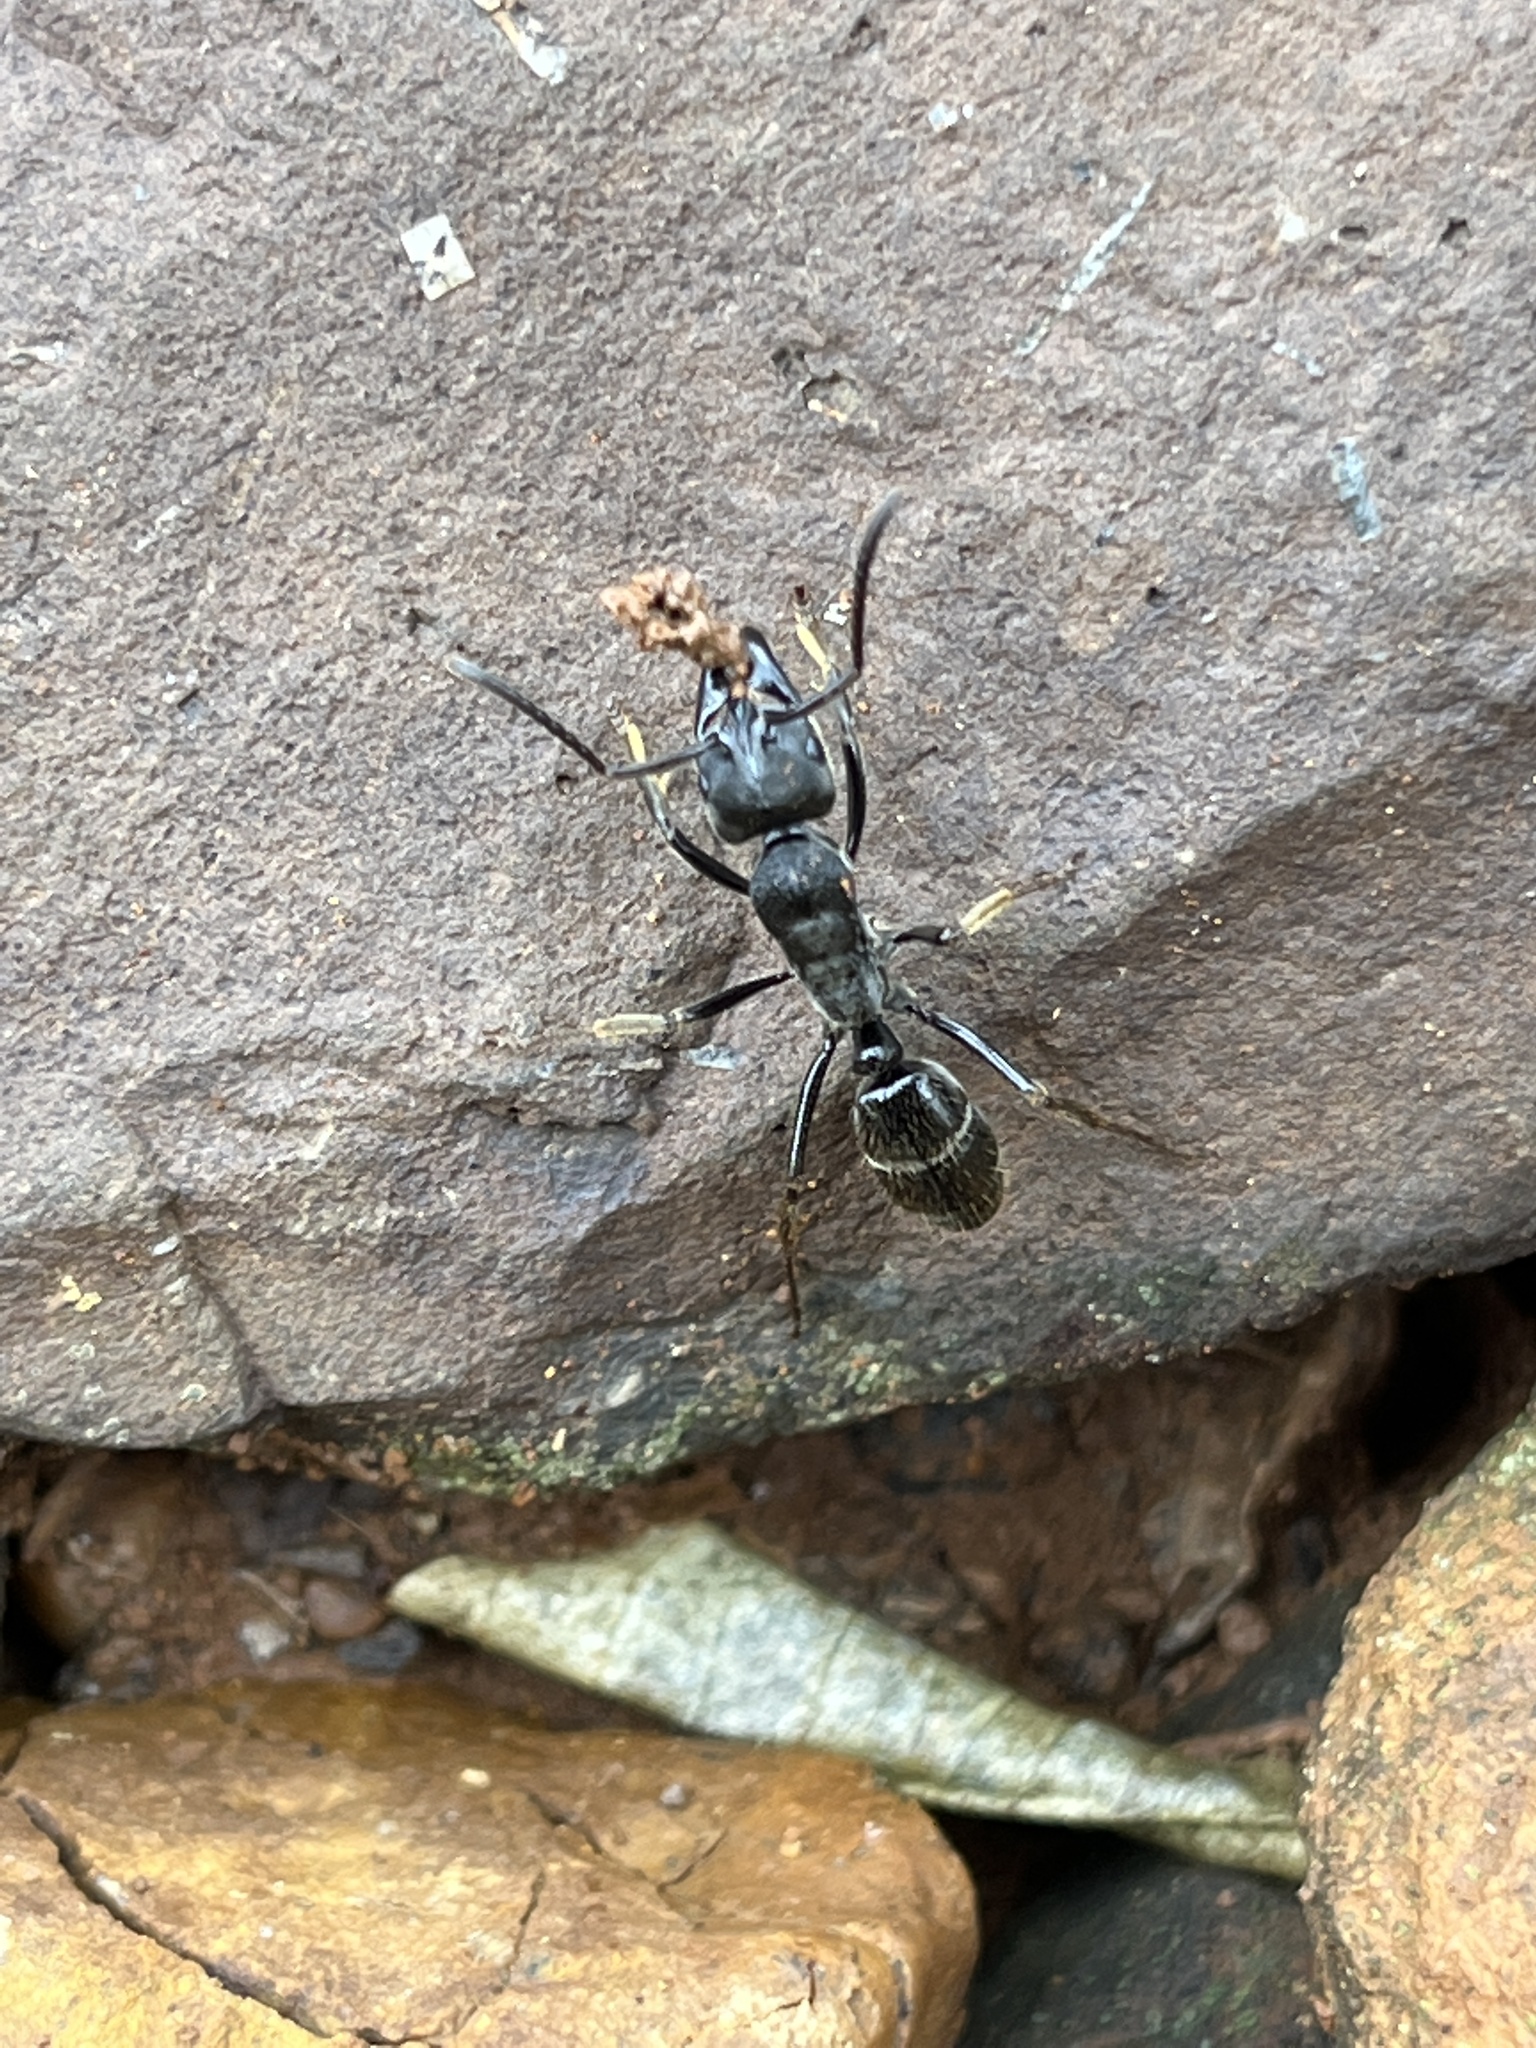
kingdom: Animalia
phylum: Arthropoda
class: Insecta
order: Hymenoptera
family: Formicidae
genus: Paltothyreus
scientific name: Paltothyreus tarsatus
